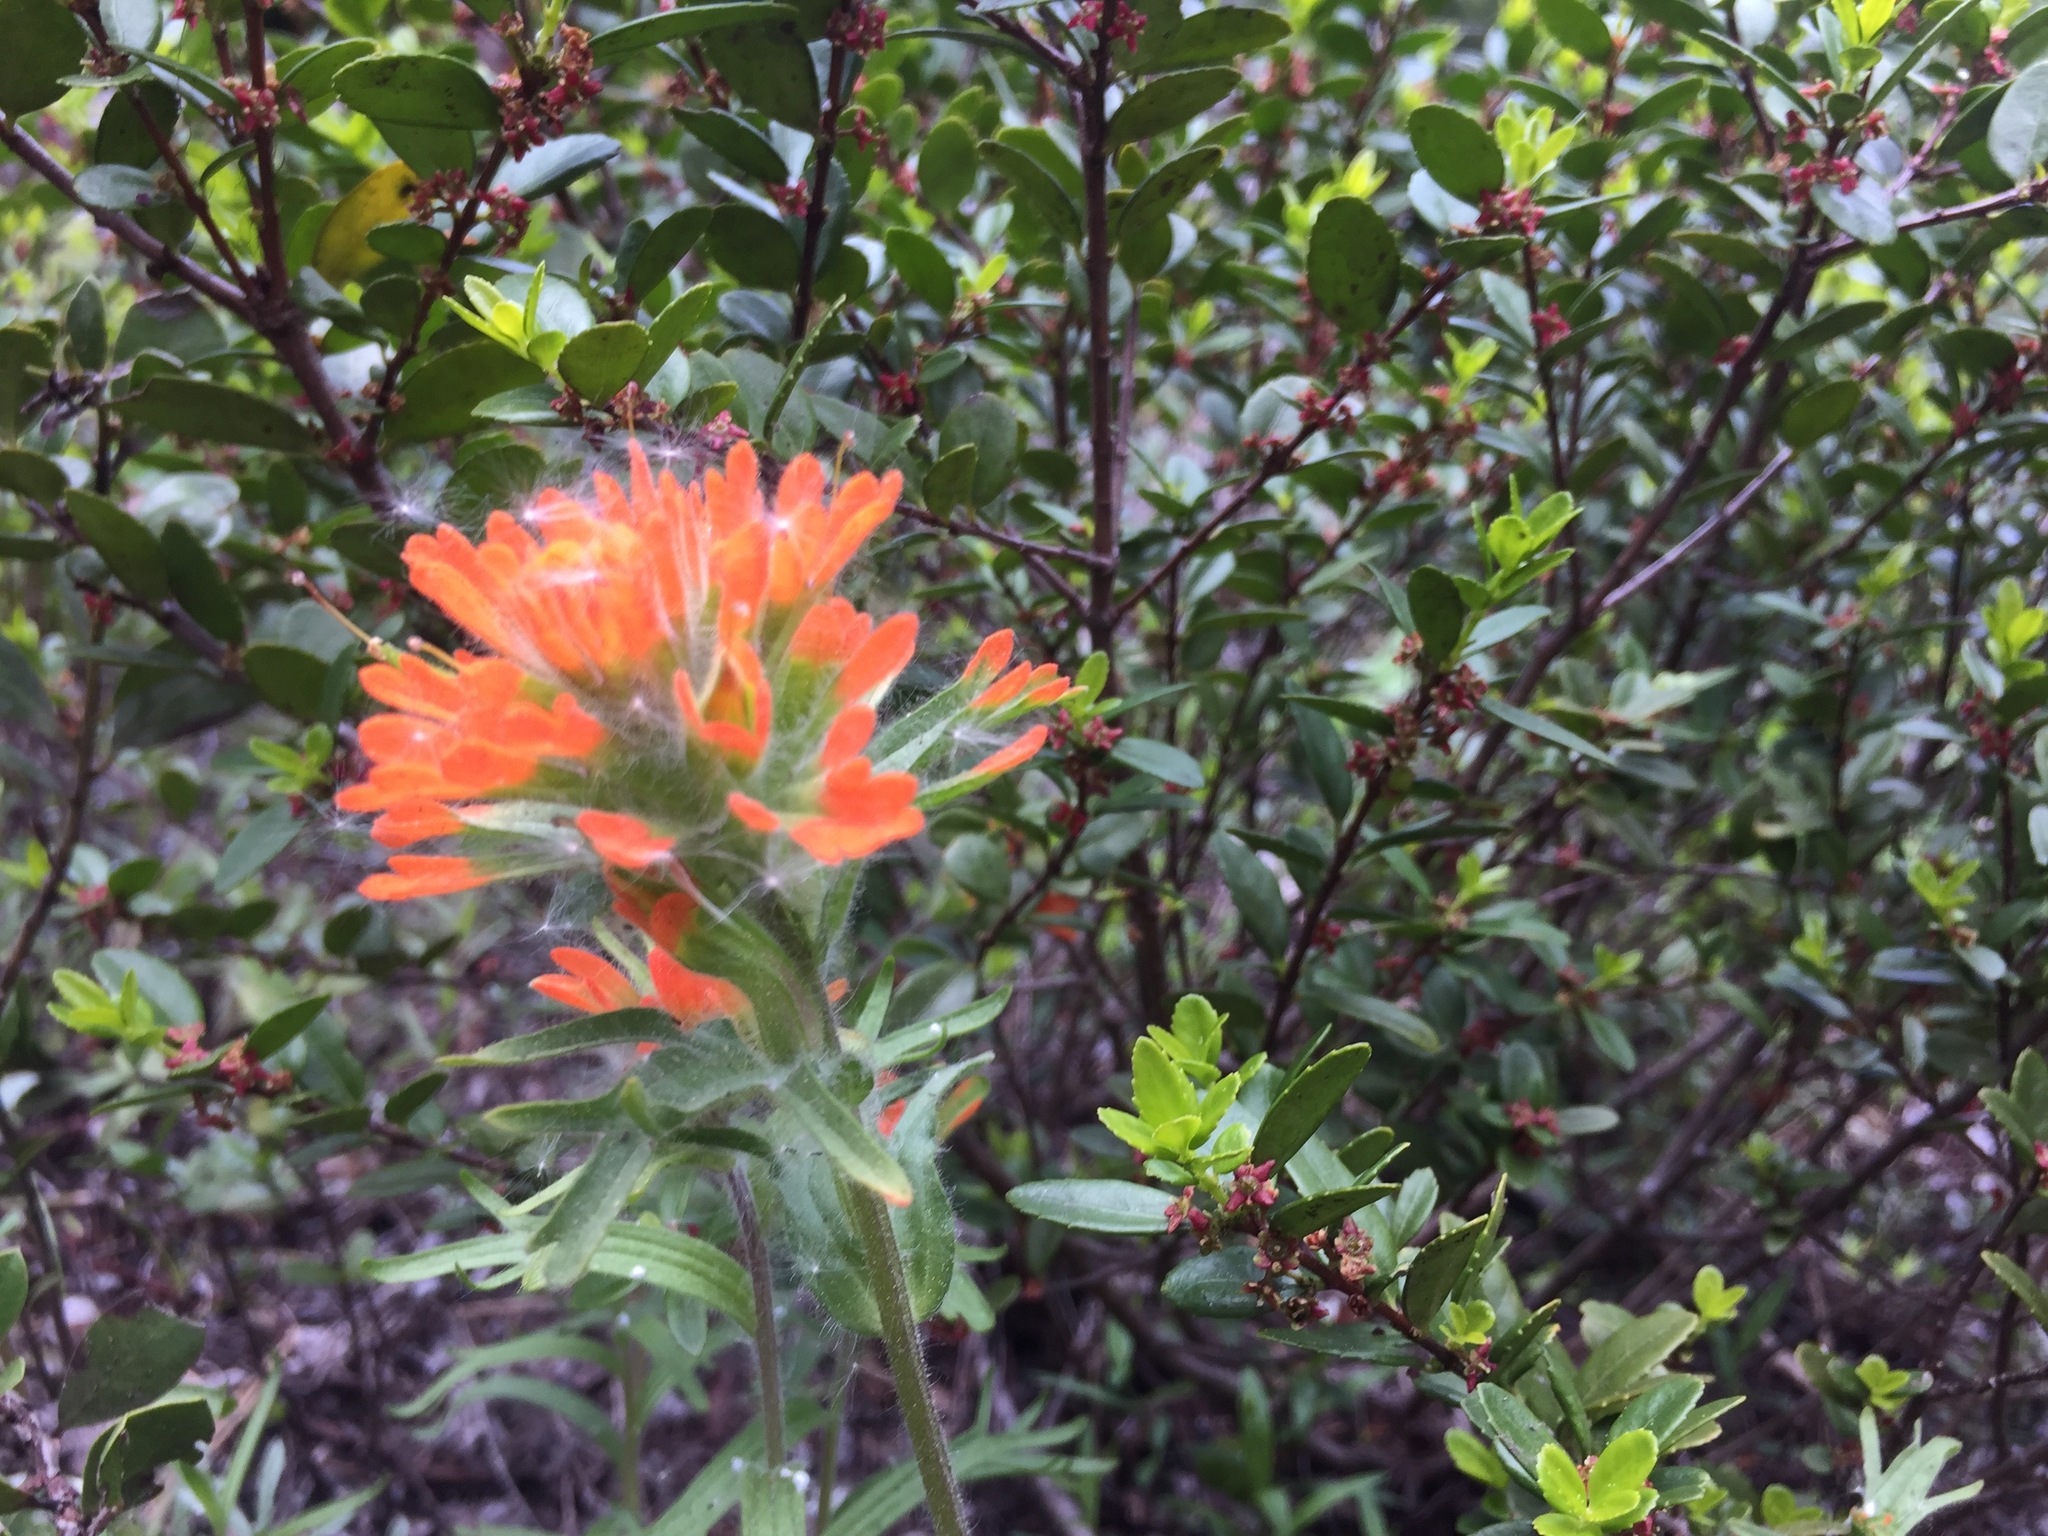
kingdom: Plantae
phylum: Tracheophyta
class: Magnoliopsida
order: Lamiales
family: Orobanchaceae
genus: Castilleja
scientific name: Castilleja hispida
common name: Bristly paintbrush
